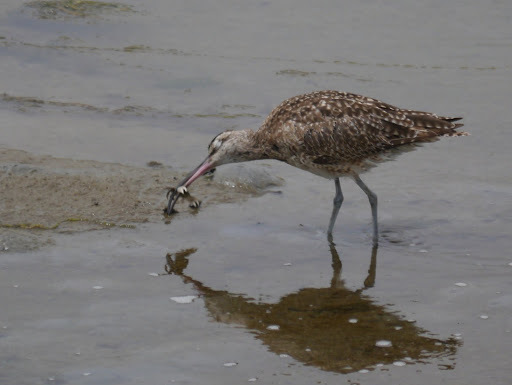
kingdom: Animalia
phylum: Chordata
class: Aves
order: Charadriiformes
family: Scolopacidae
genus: Numenius
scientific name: Numenius phaeopus
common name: Whimbrel
